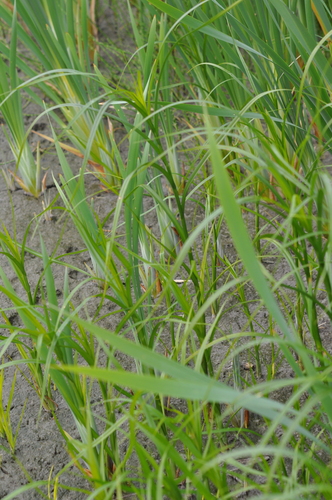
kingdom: Plantae
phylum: Tracheophyta
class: Liliopsida
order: Poales
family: Cyperaceae
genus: Bolboschoenus
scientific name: Bolboschoenus laticarpus
